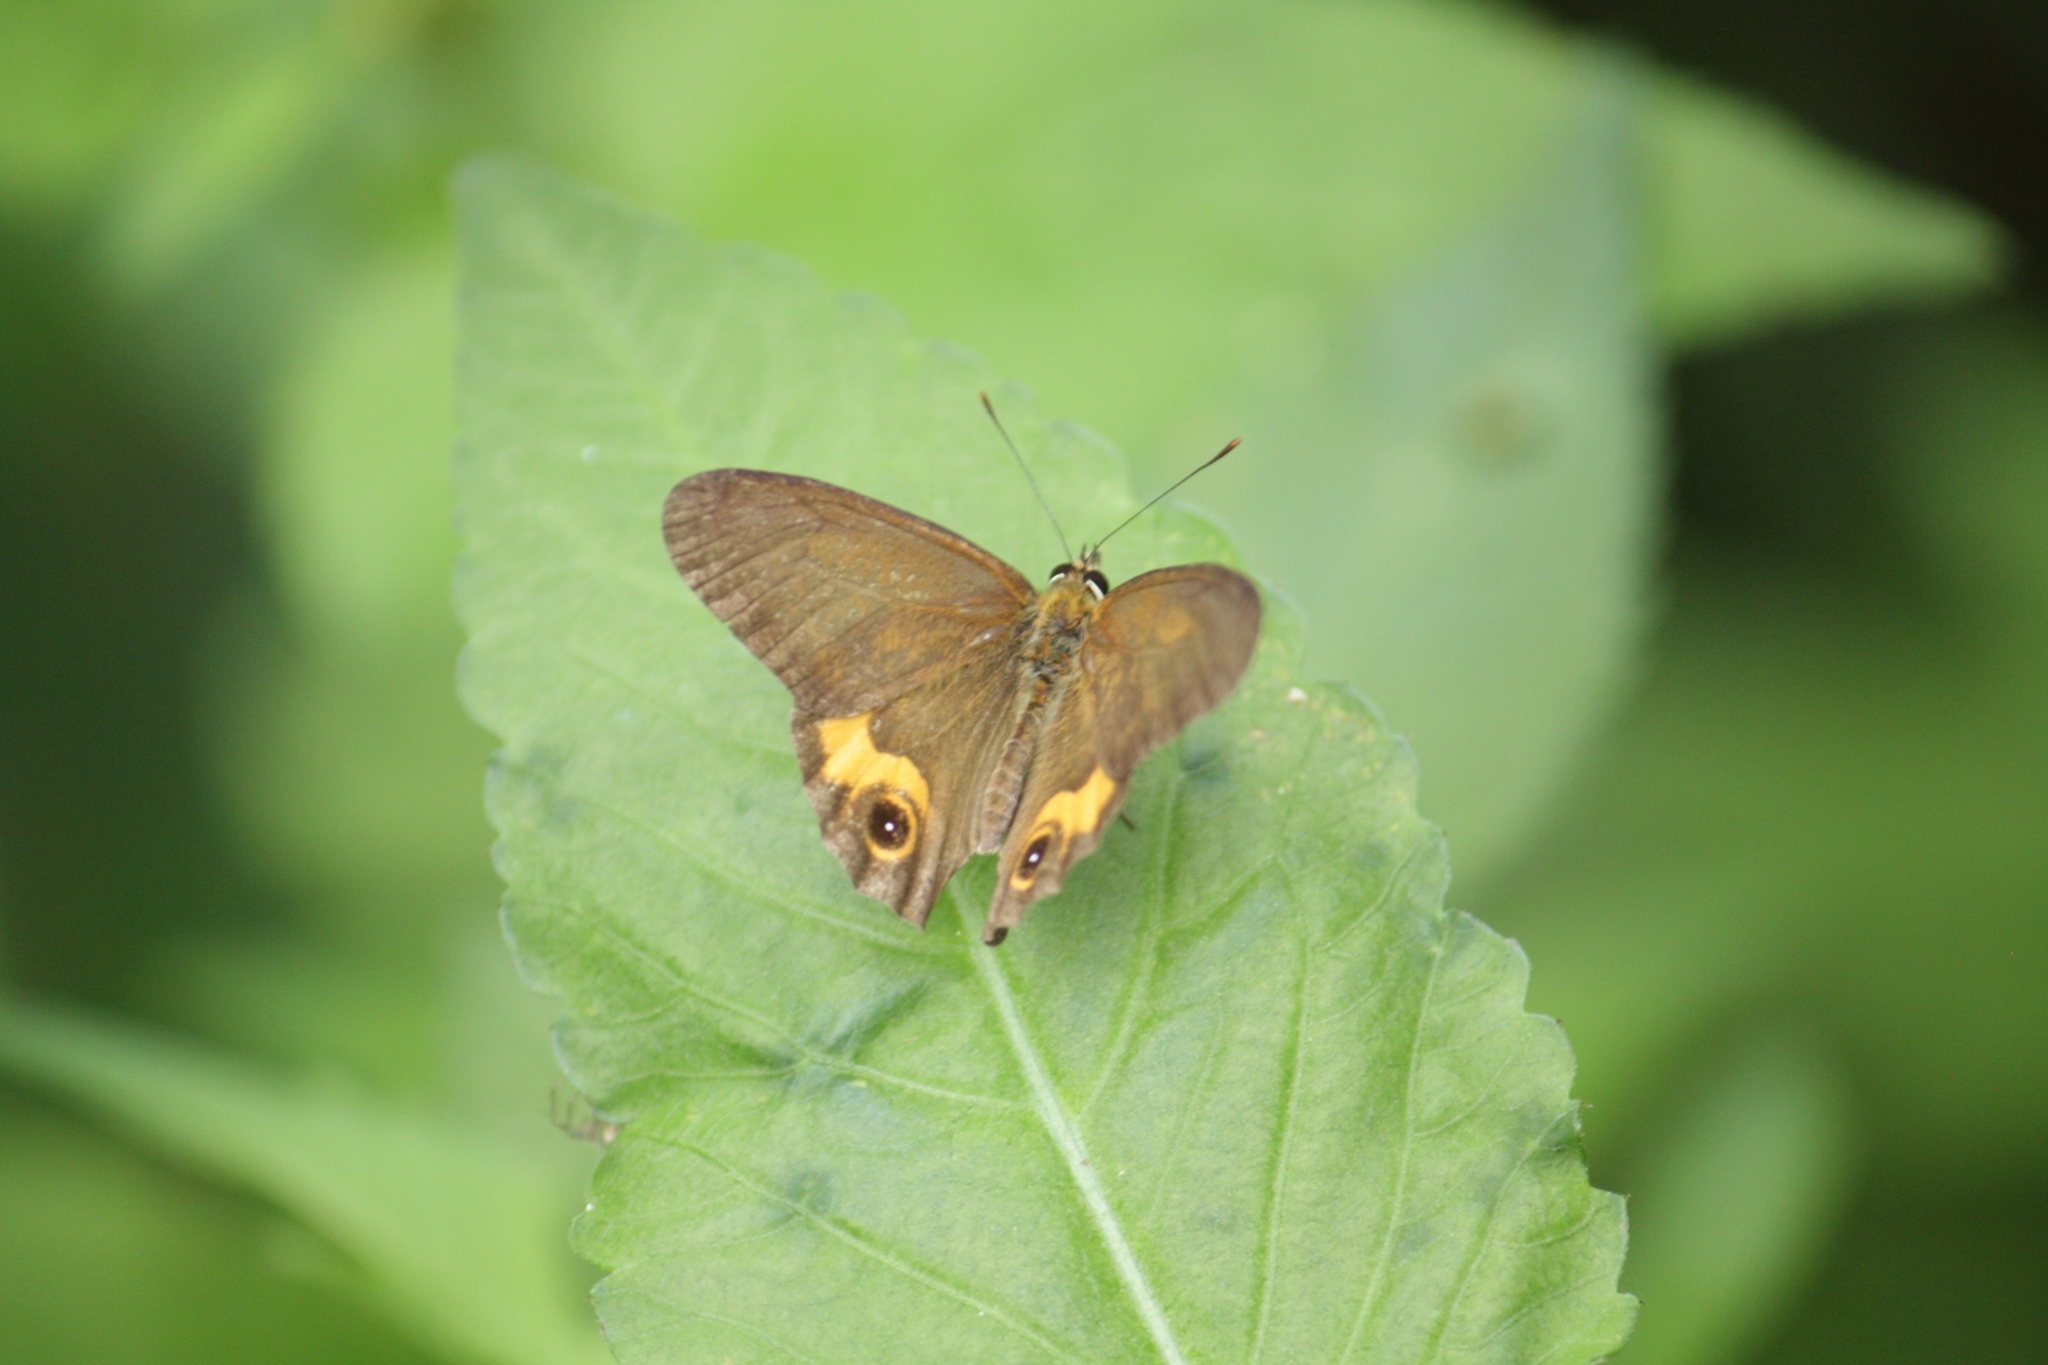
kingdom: Animalia
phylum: Arthropoda
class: Insecta
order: Lepidoptera
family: Nymphalidae
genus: Hypocysta
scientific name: Hypocysta metirius
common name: Brown ringlet
